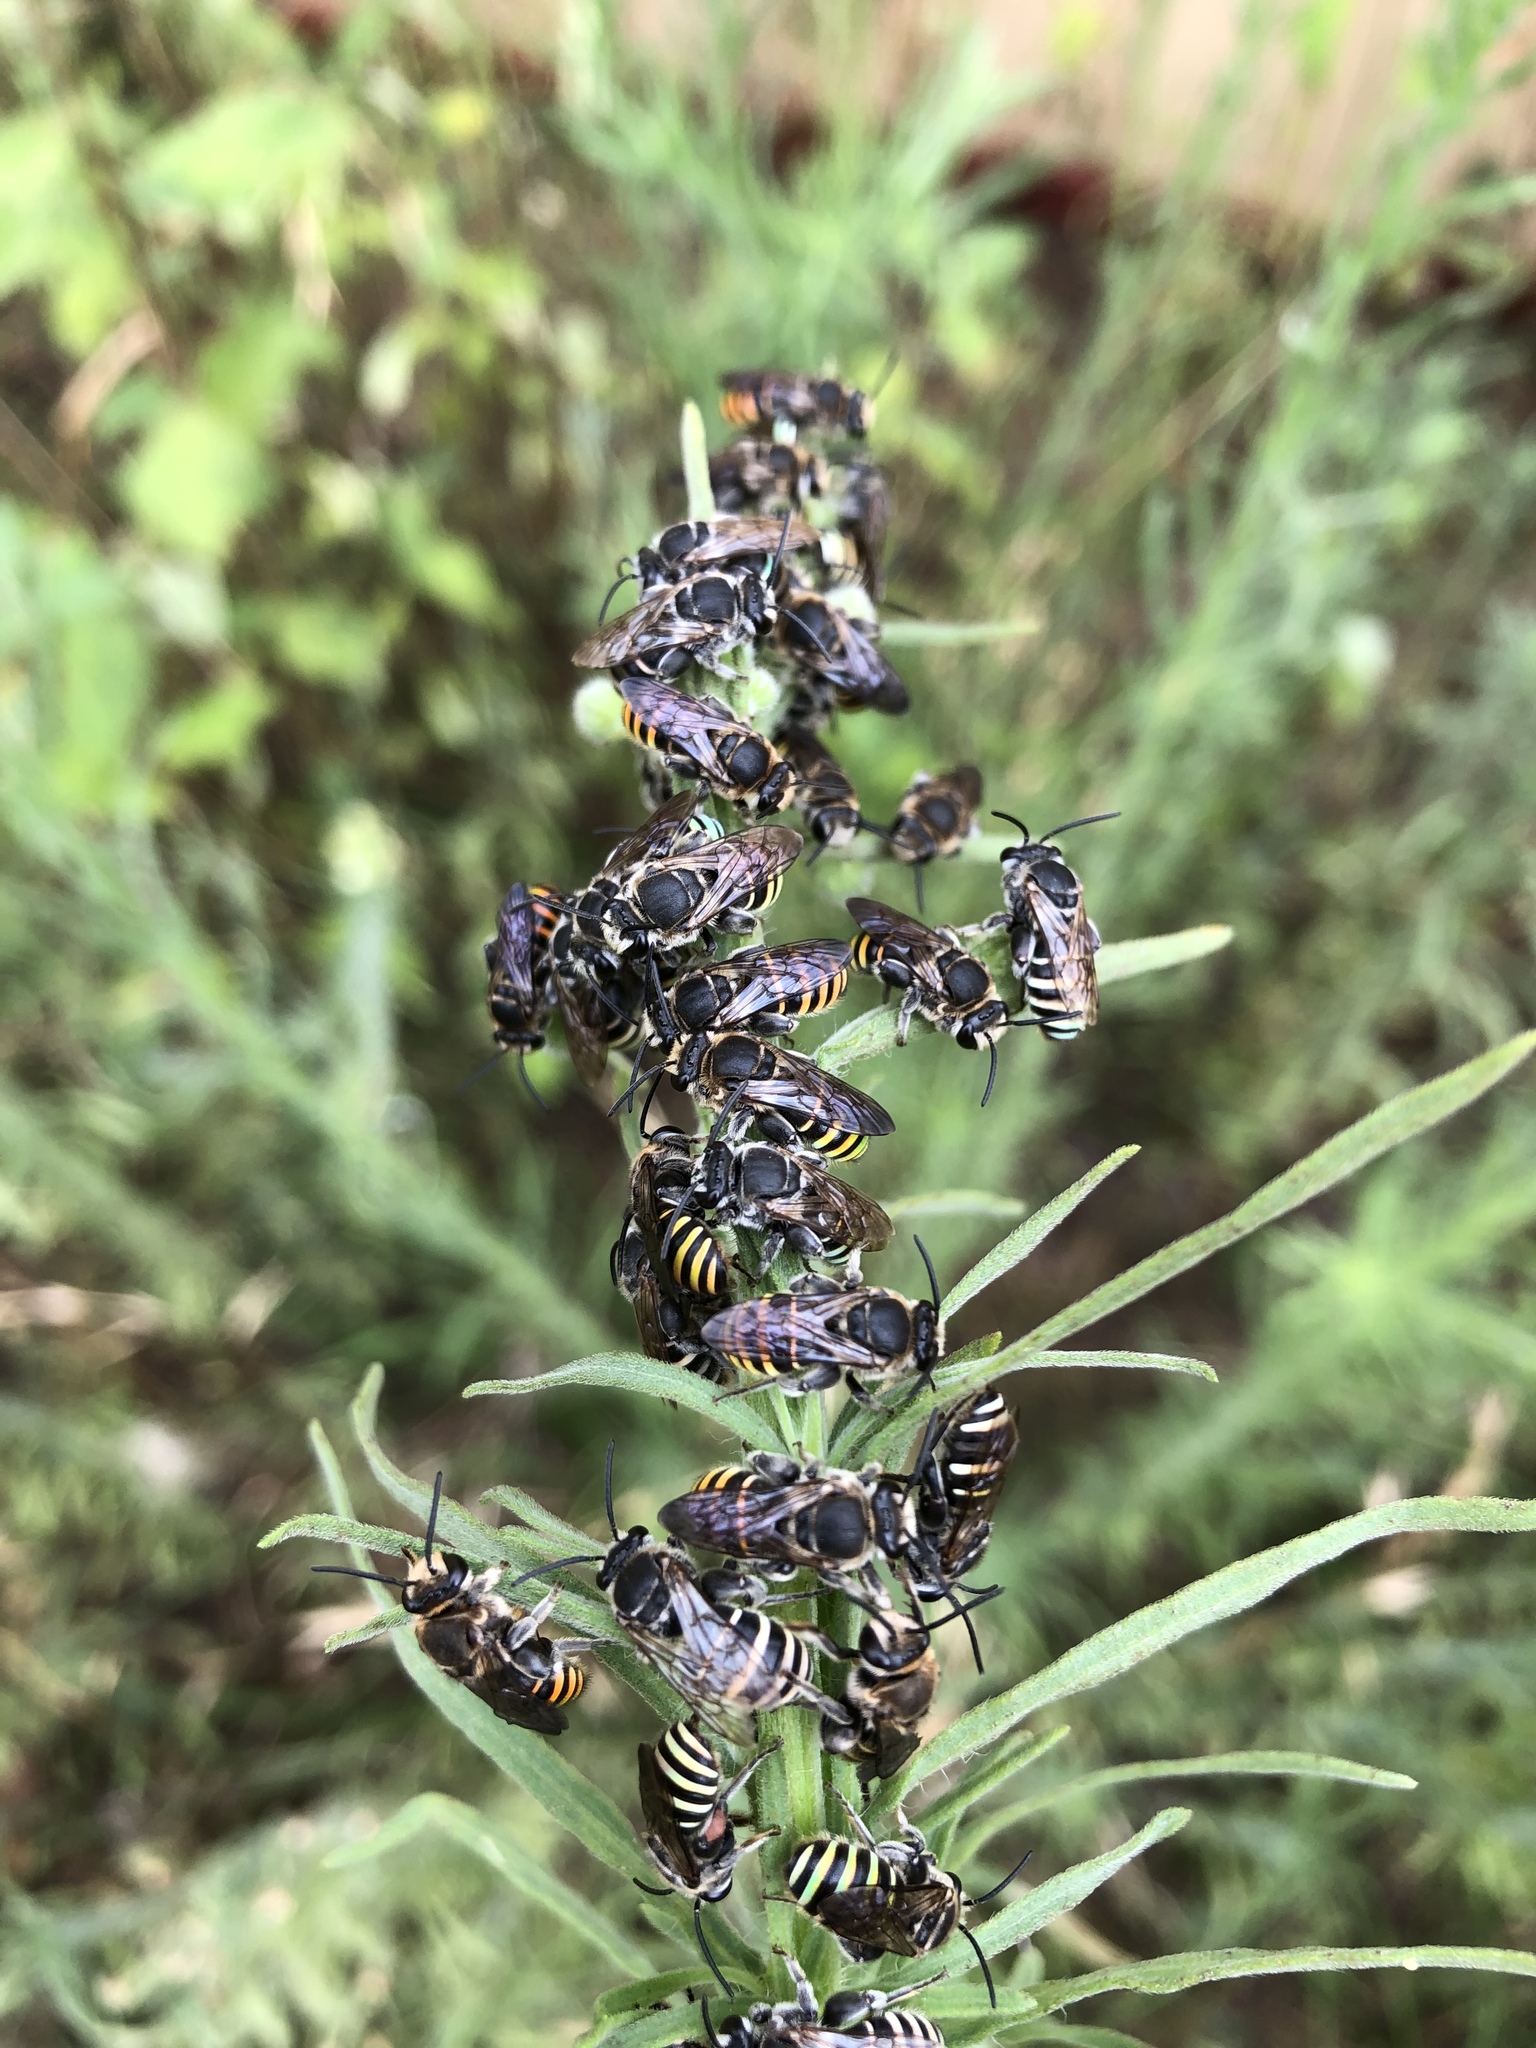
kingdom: Animalia
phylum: Arthropoda
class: Insecta
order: Hymenoptera
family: Halictidae
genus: Nomia
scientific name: Nomia rubroviridis
